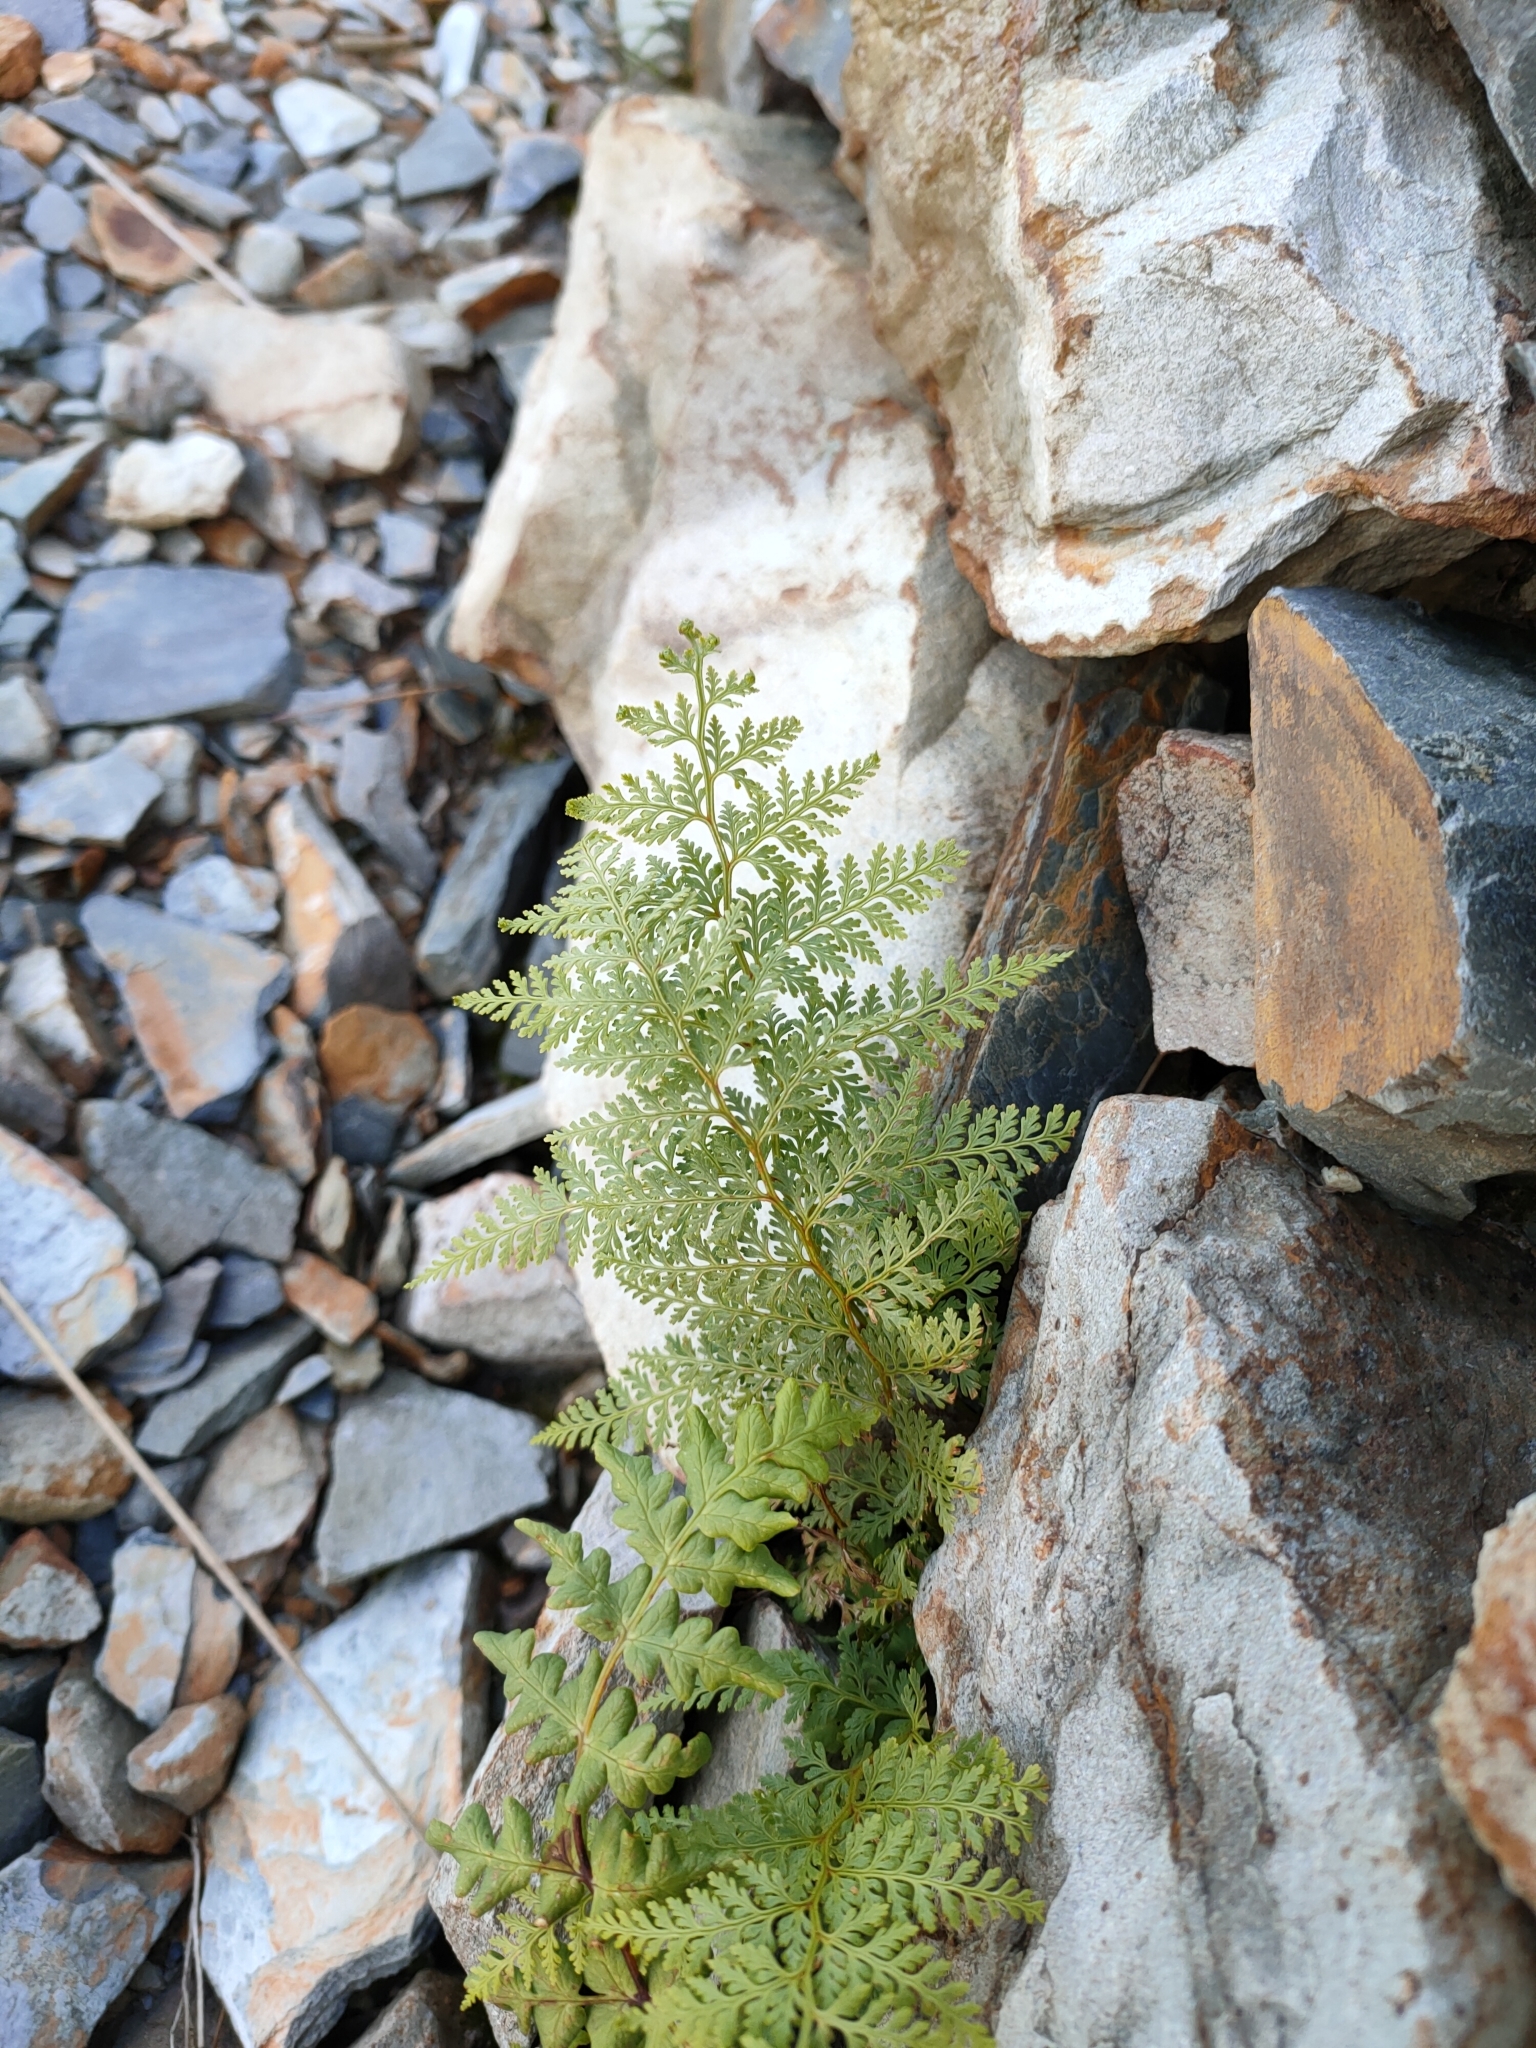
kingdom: Plantae
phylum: Tracheophyta
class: Polypodiopsida
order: Polypodiales
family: Dennstaedtiaceae
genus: Paesia
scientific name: Paesia scaberula
